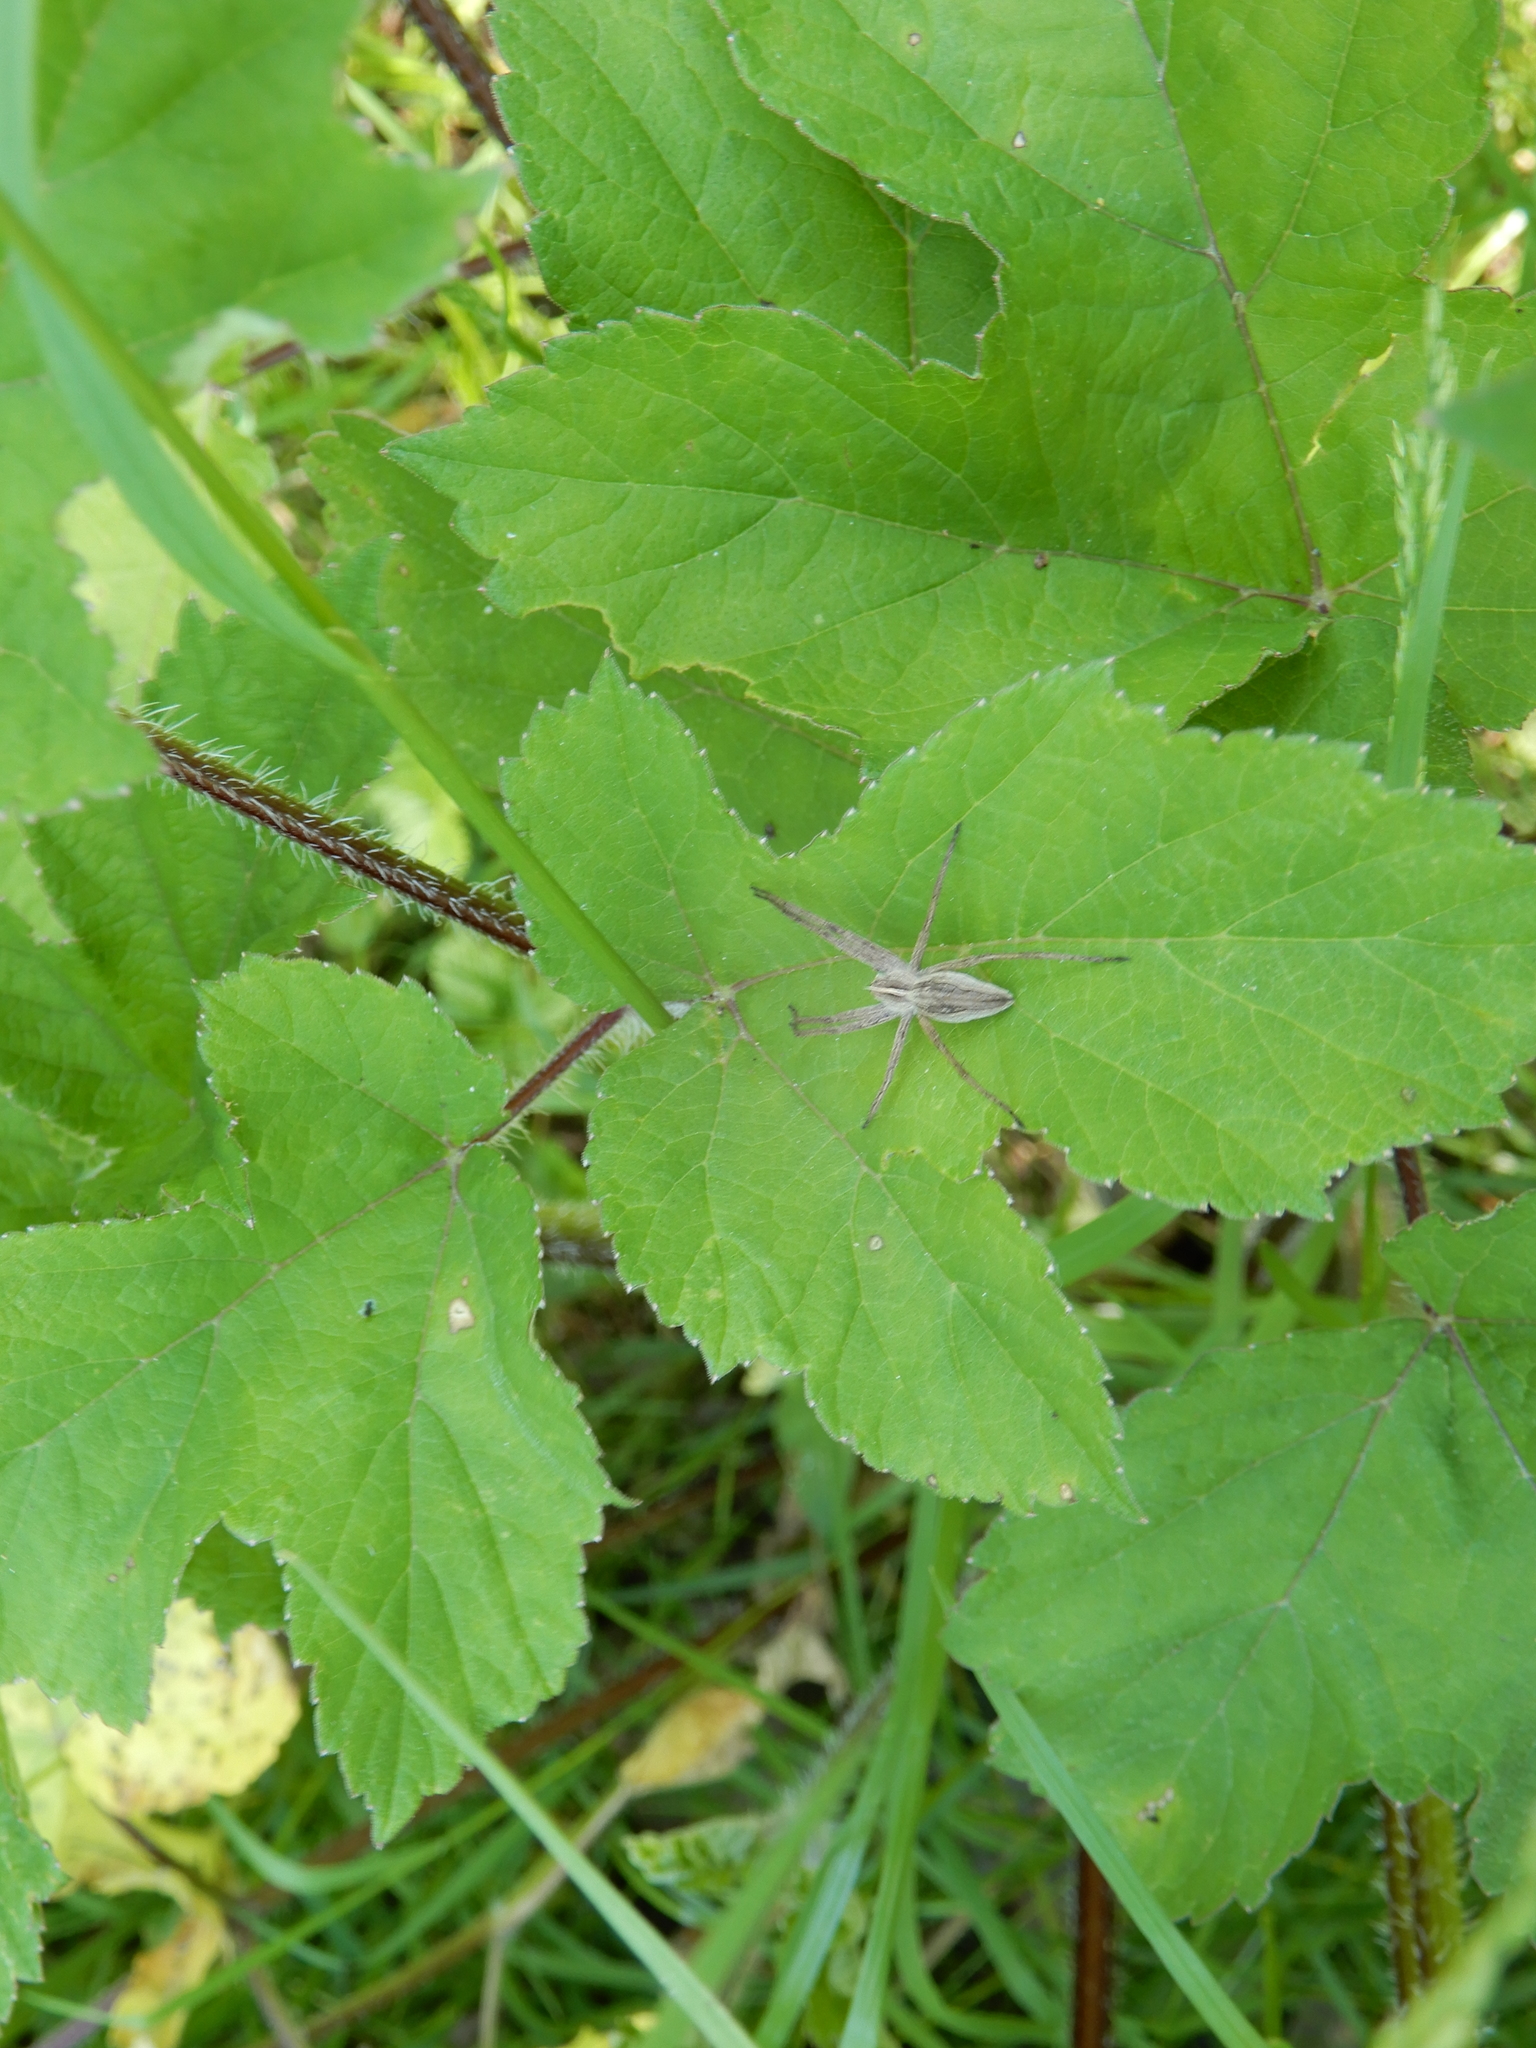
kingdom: Animalia
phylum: Arthropoda
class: Arachnida
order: Araneae
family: Pisauridae
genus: Pisaura
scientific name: Pisaura mirabilis
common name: Tent spider
